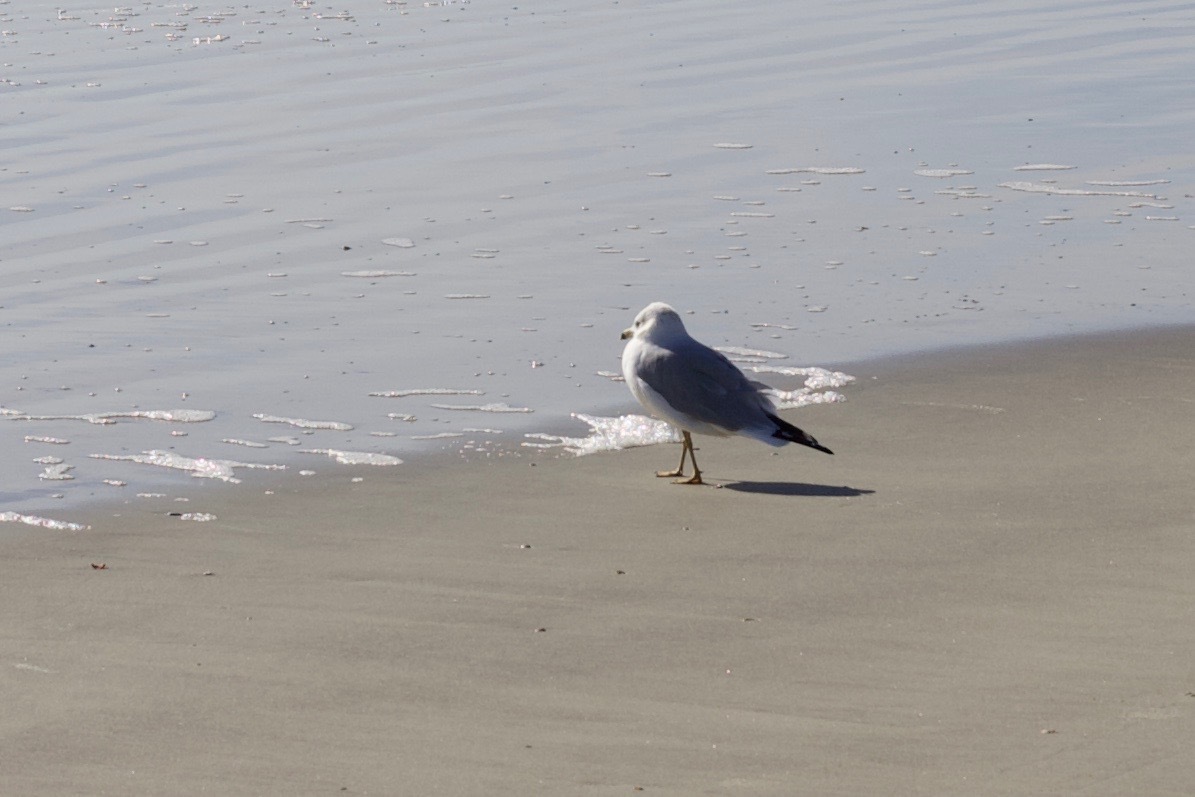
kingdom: Animalia
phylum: Chordata
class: Aves
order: Charadriiformes
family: Laridae
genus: Larus
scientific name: Larus delawarensis
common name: Ring-billed gull
